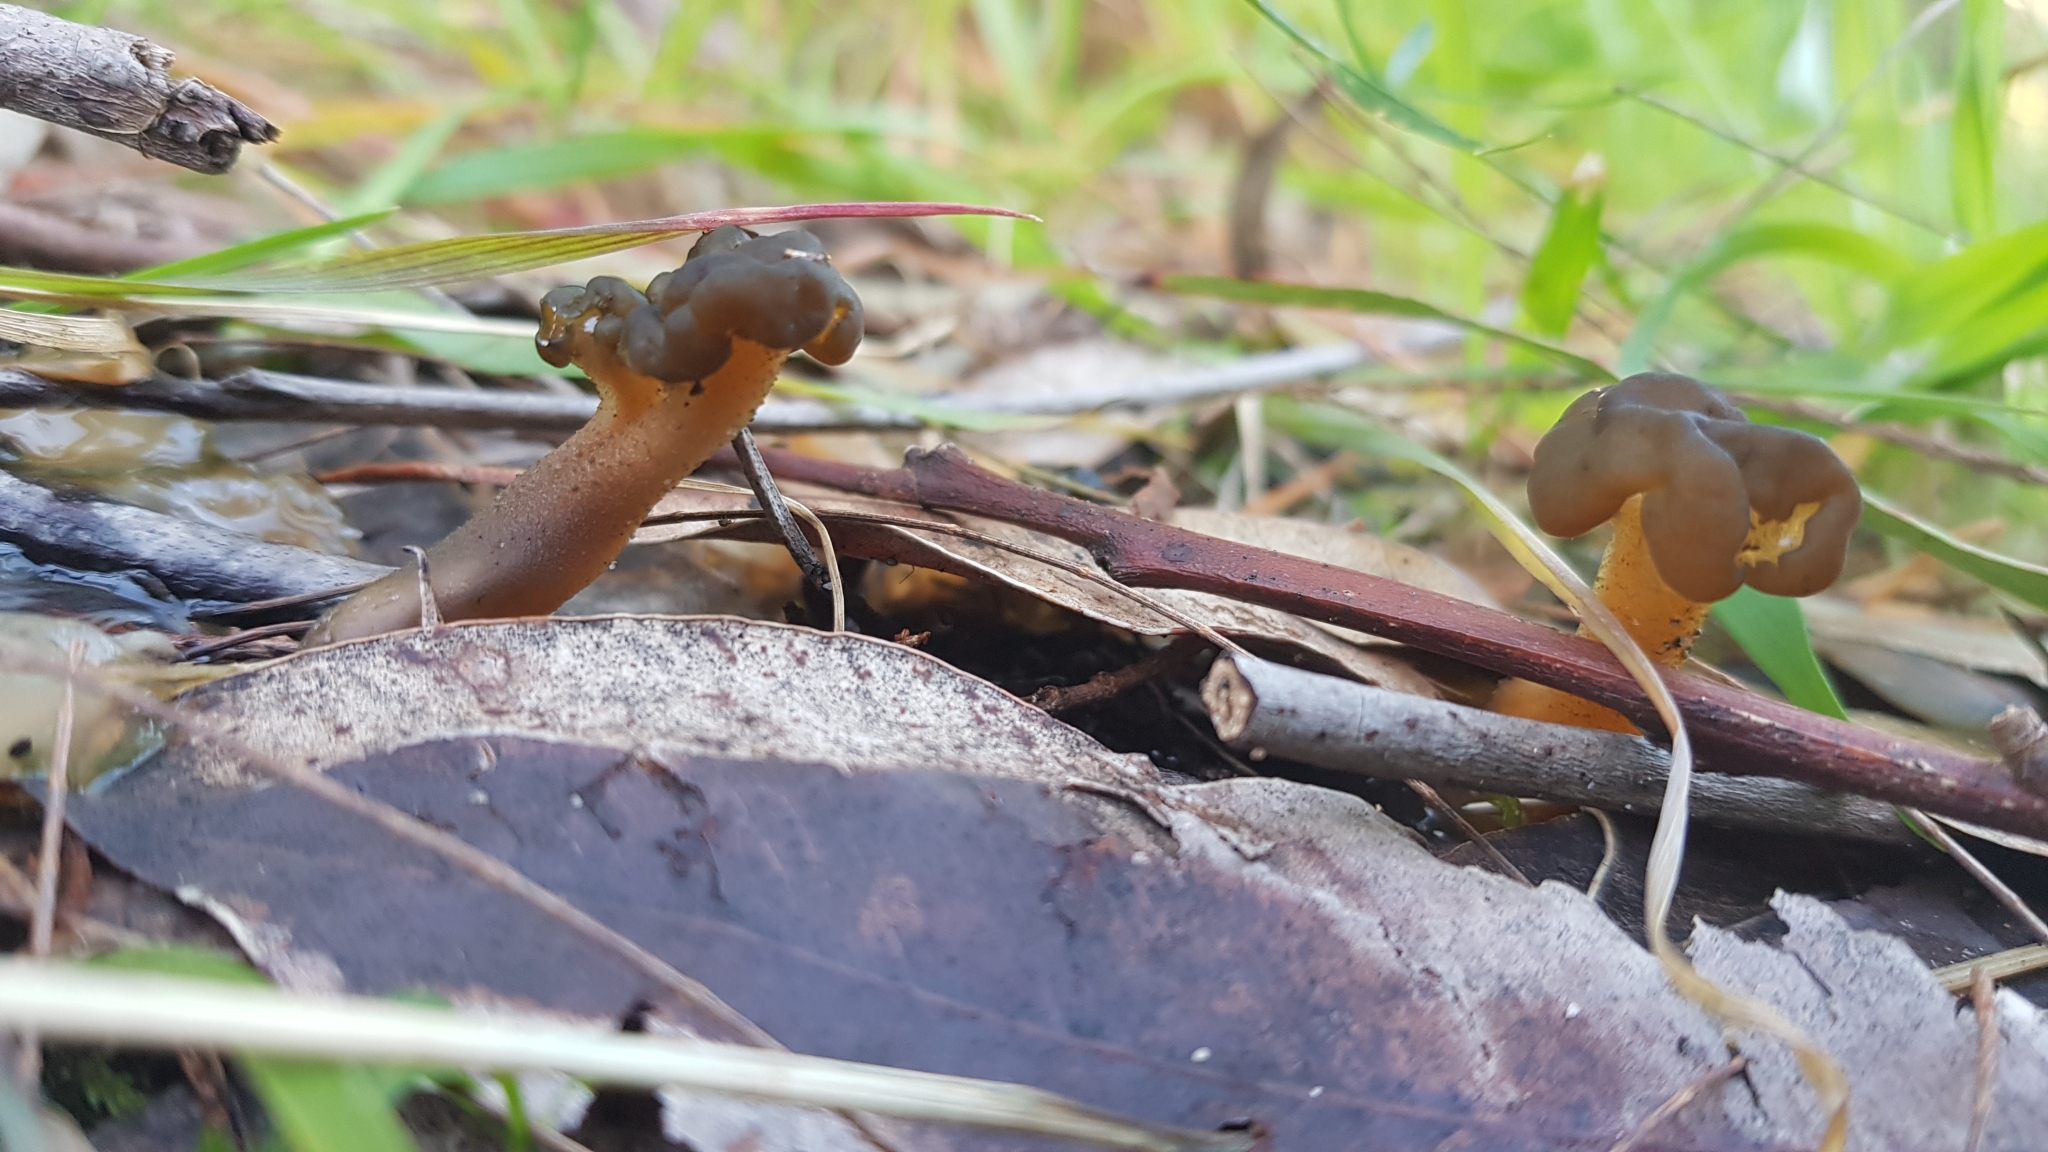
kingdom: Fungi
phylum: Ascomycota
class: Leotiomycetes
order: Leotiales
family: Leotiaceae
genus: Leotia
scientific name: Leotia lubrica
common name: Jellybaby
